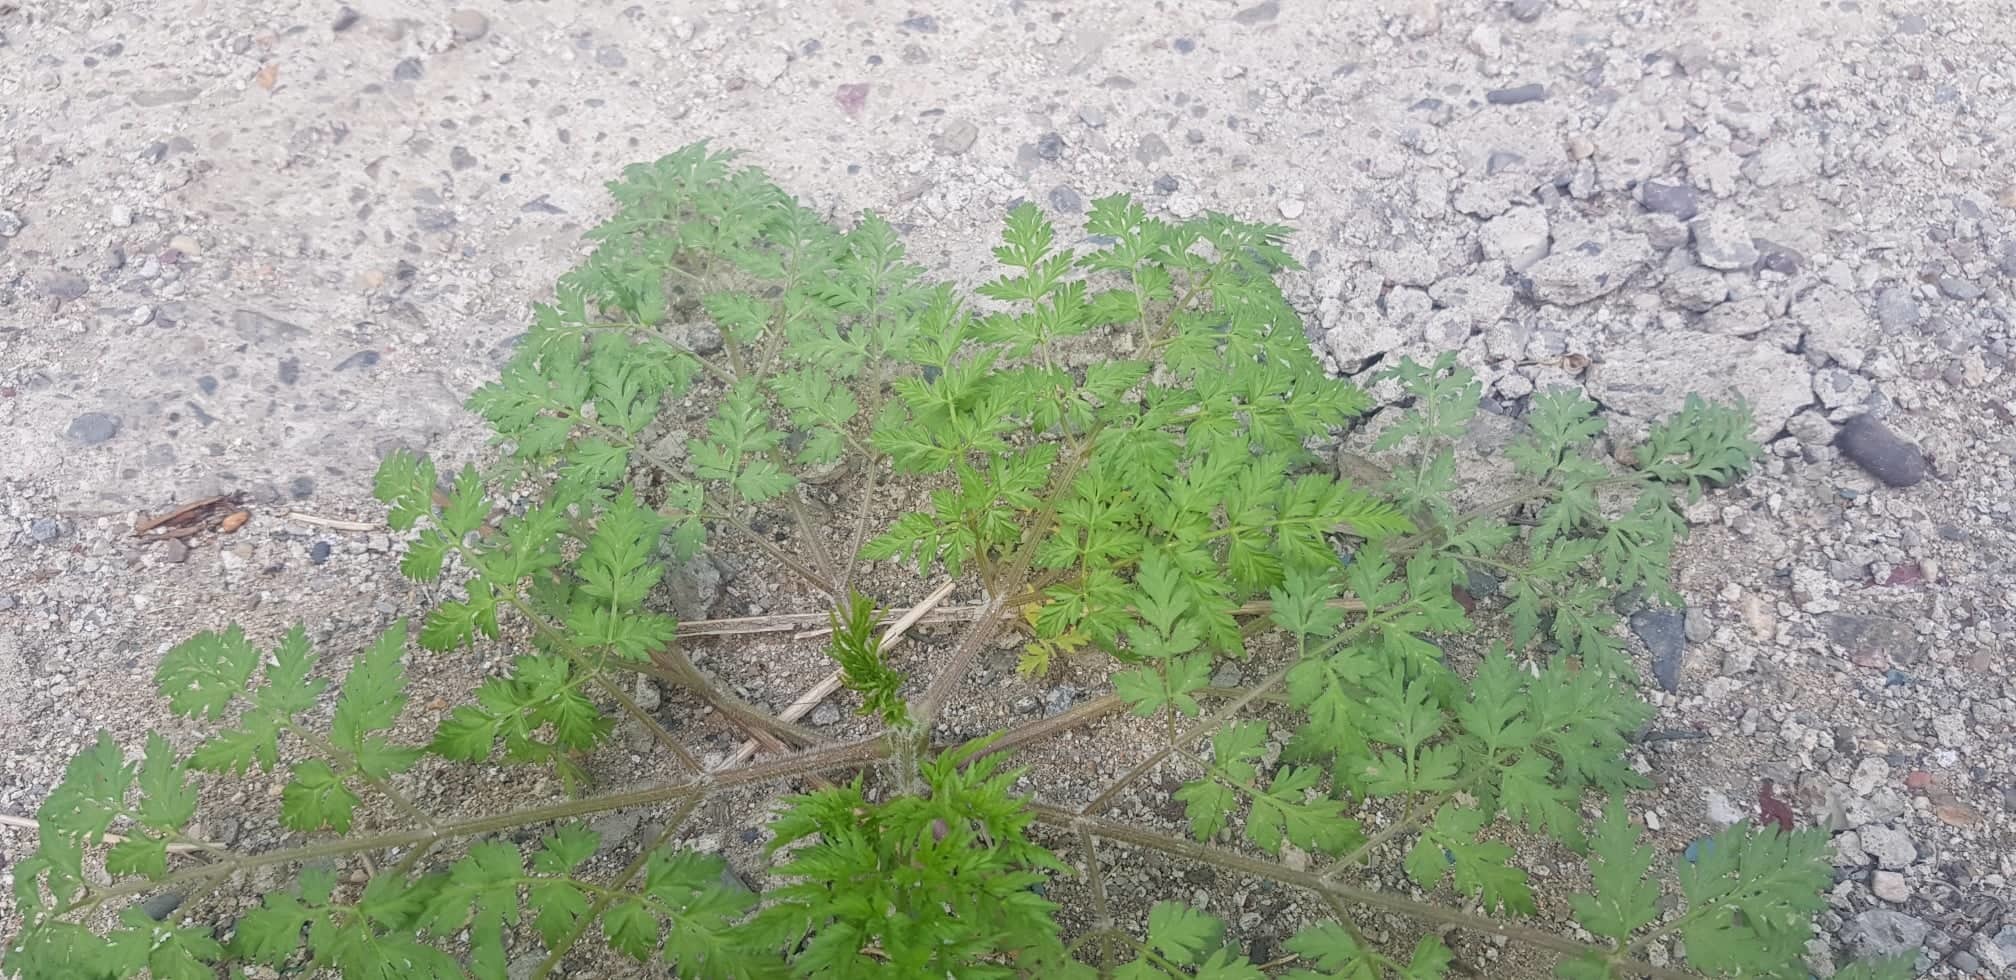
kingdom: Plantae
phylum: Tracheophyta
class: Magnoliopsida
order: Apiales
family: Apiaceae
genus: Sphallerocarpus
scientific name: Sphallerocarpus gracilis
